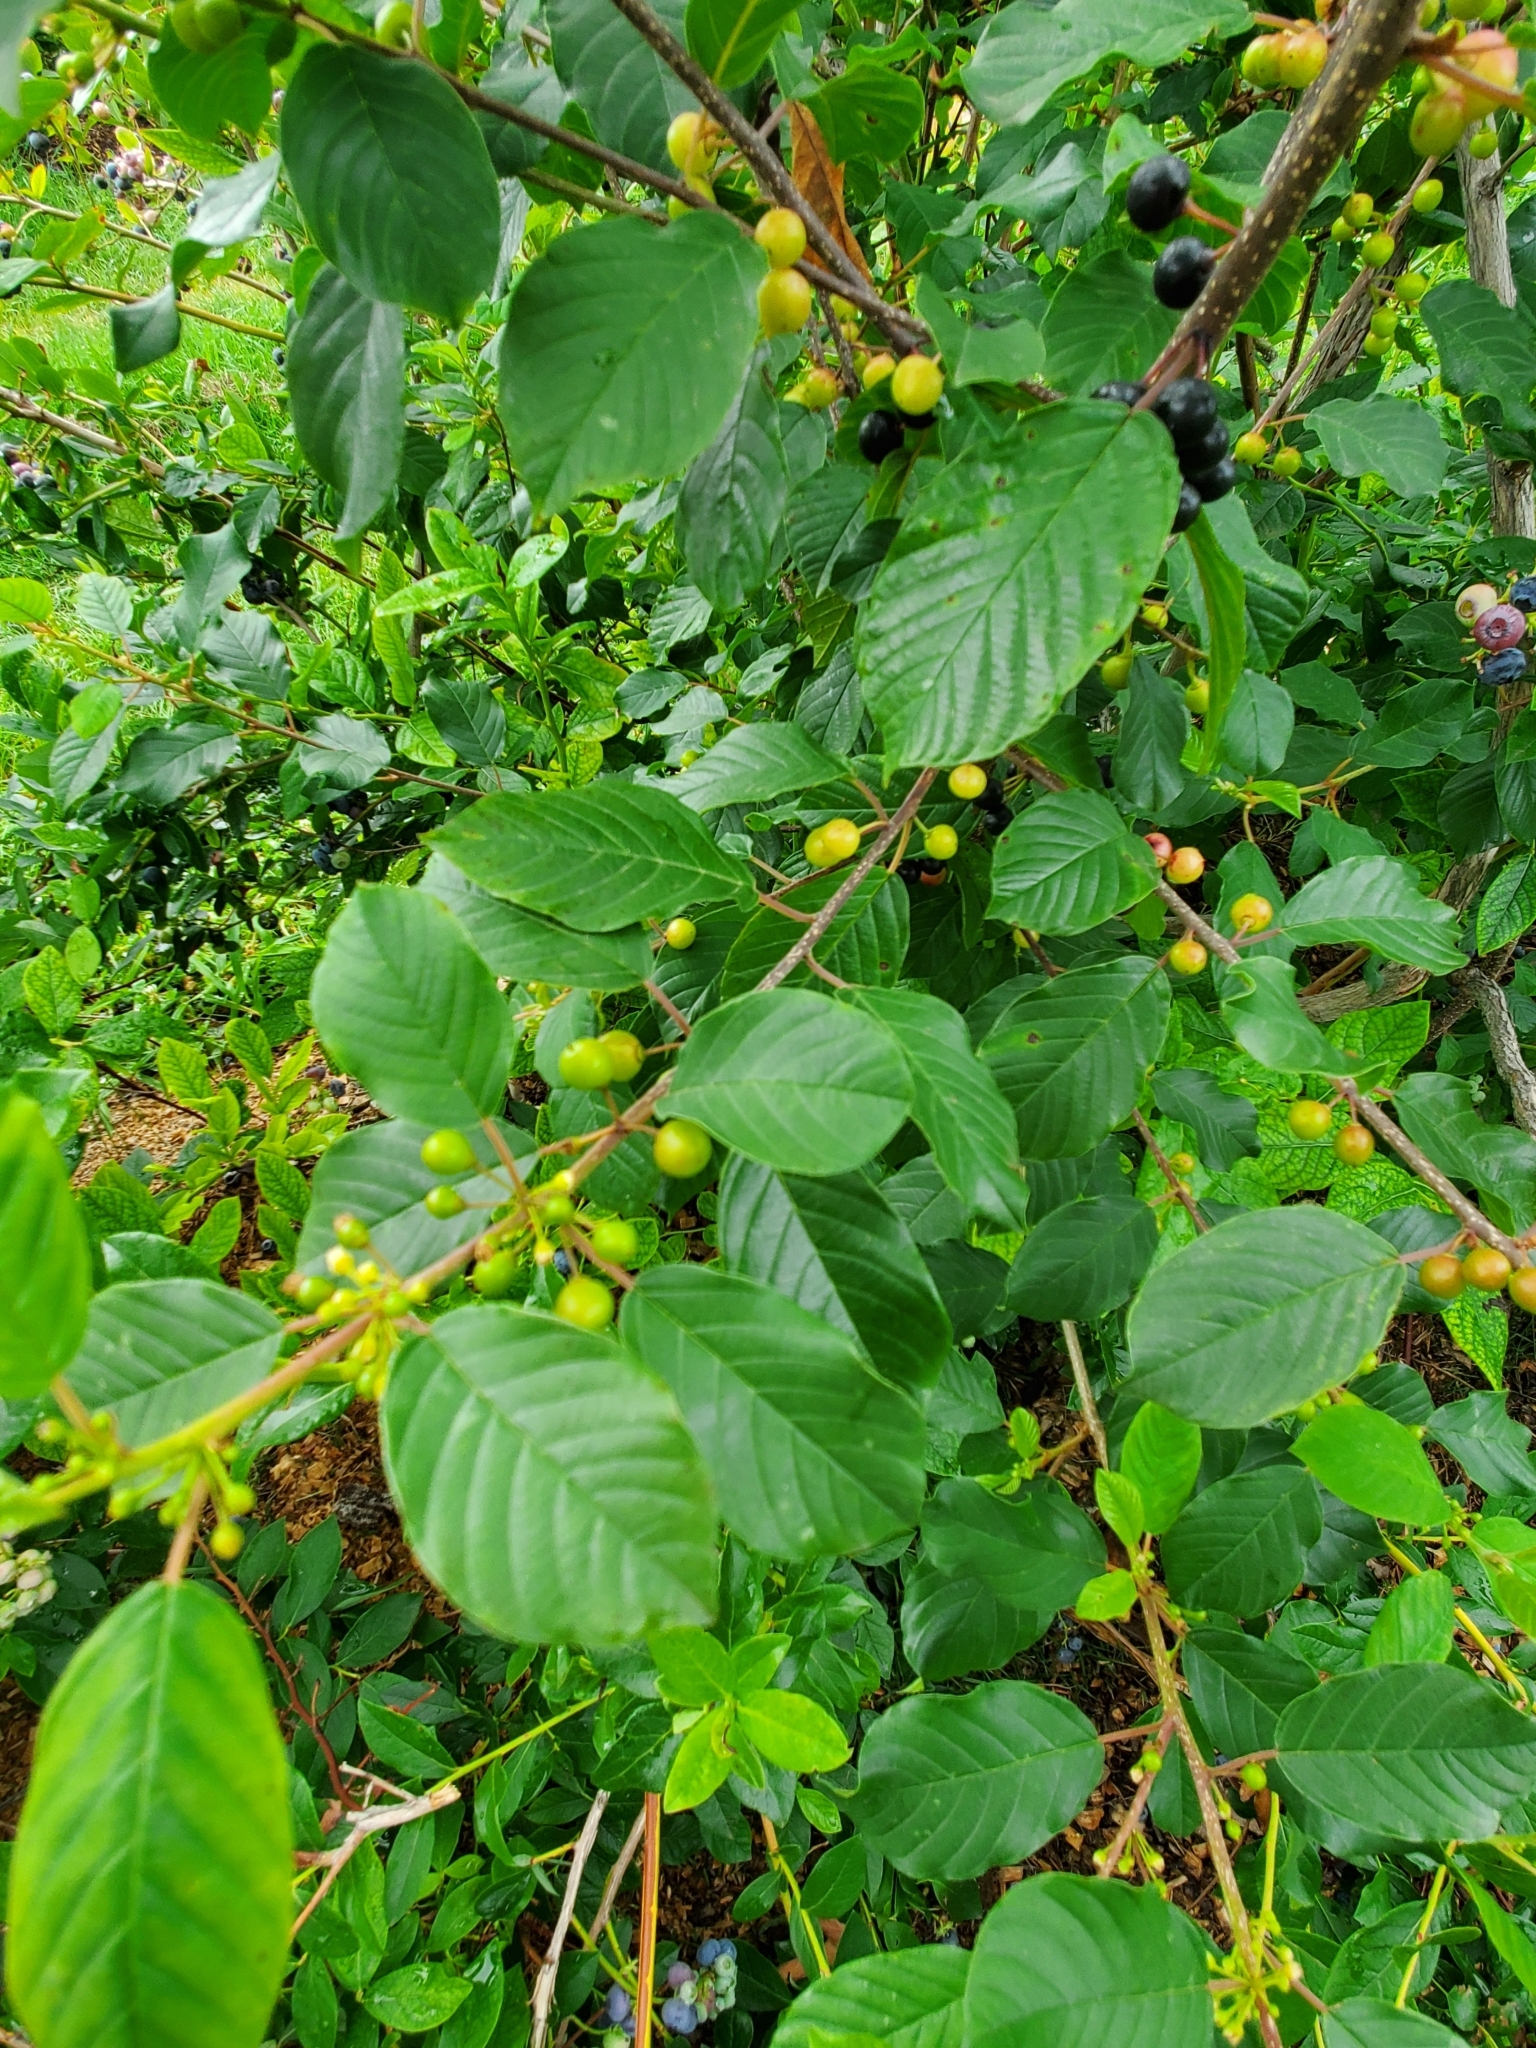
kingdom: Plantae
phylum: Tracheophyta
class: Magnoliopsida
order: Rosales
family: Rhamnaceae
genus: Frangula
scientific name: Frangula alnus
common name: Alder buckthorn
